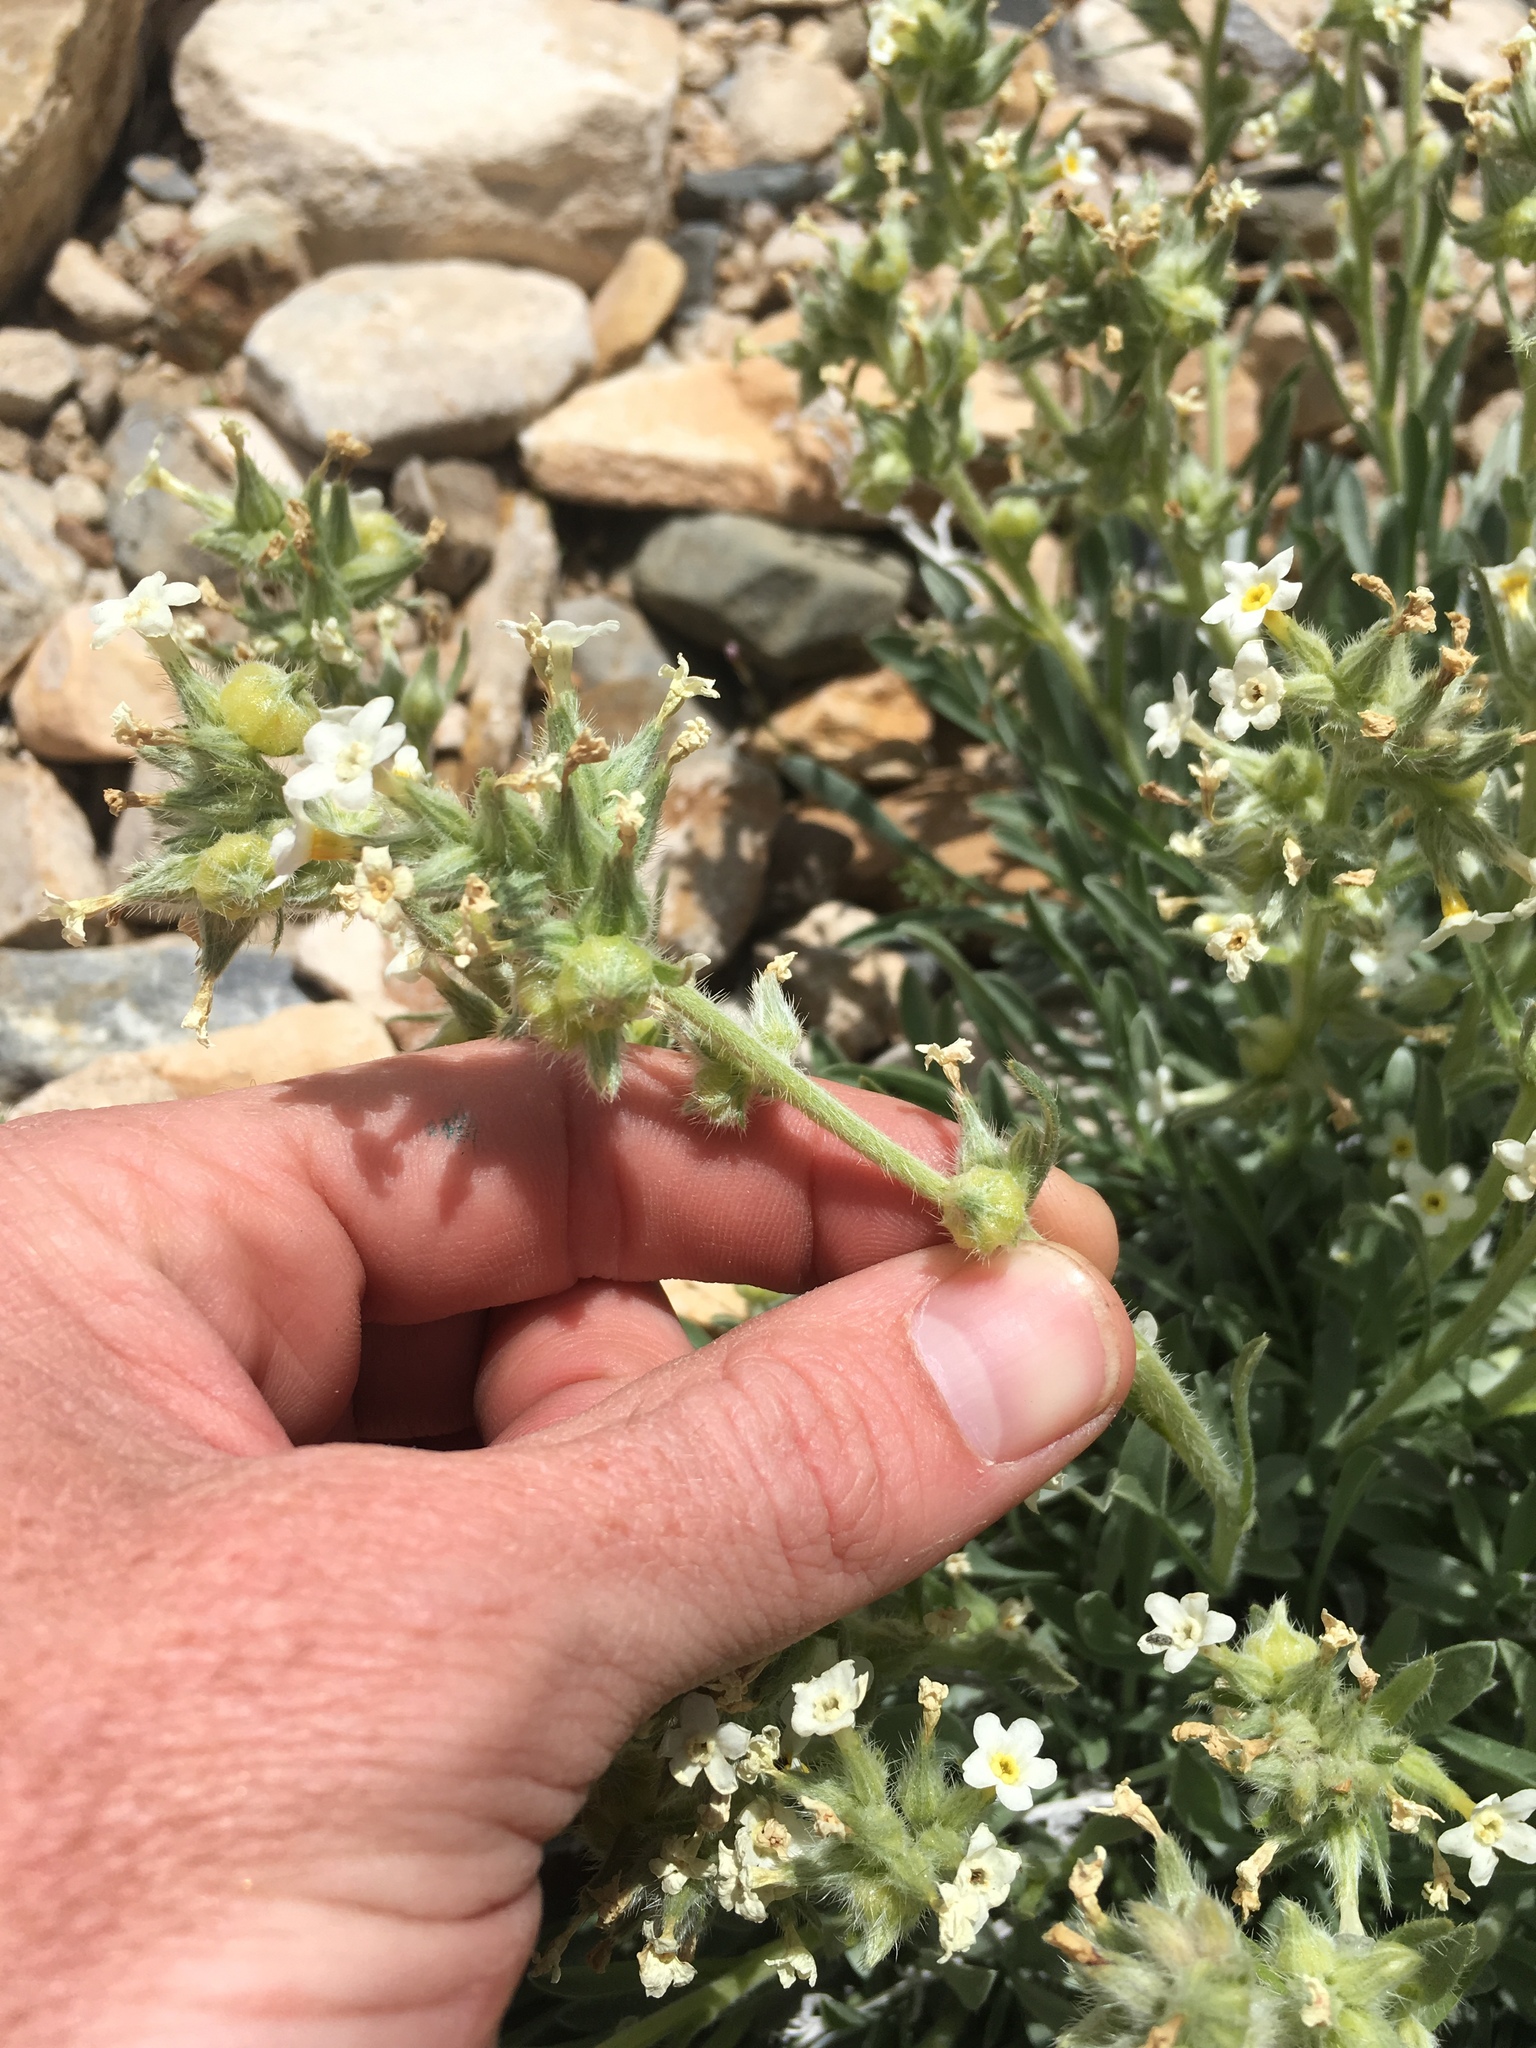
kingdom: Plantae
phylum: Tracheophyta
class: Magnoliopsida
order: Boraginales
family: Boraginaceae
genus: Oreocarya
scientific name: Oreocarya flavoculata
